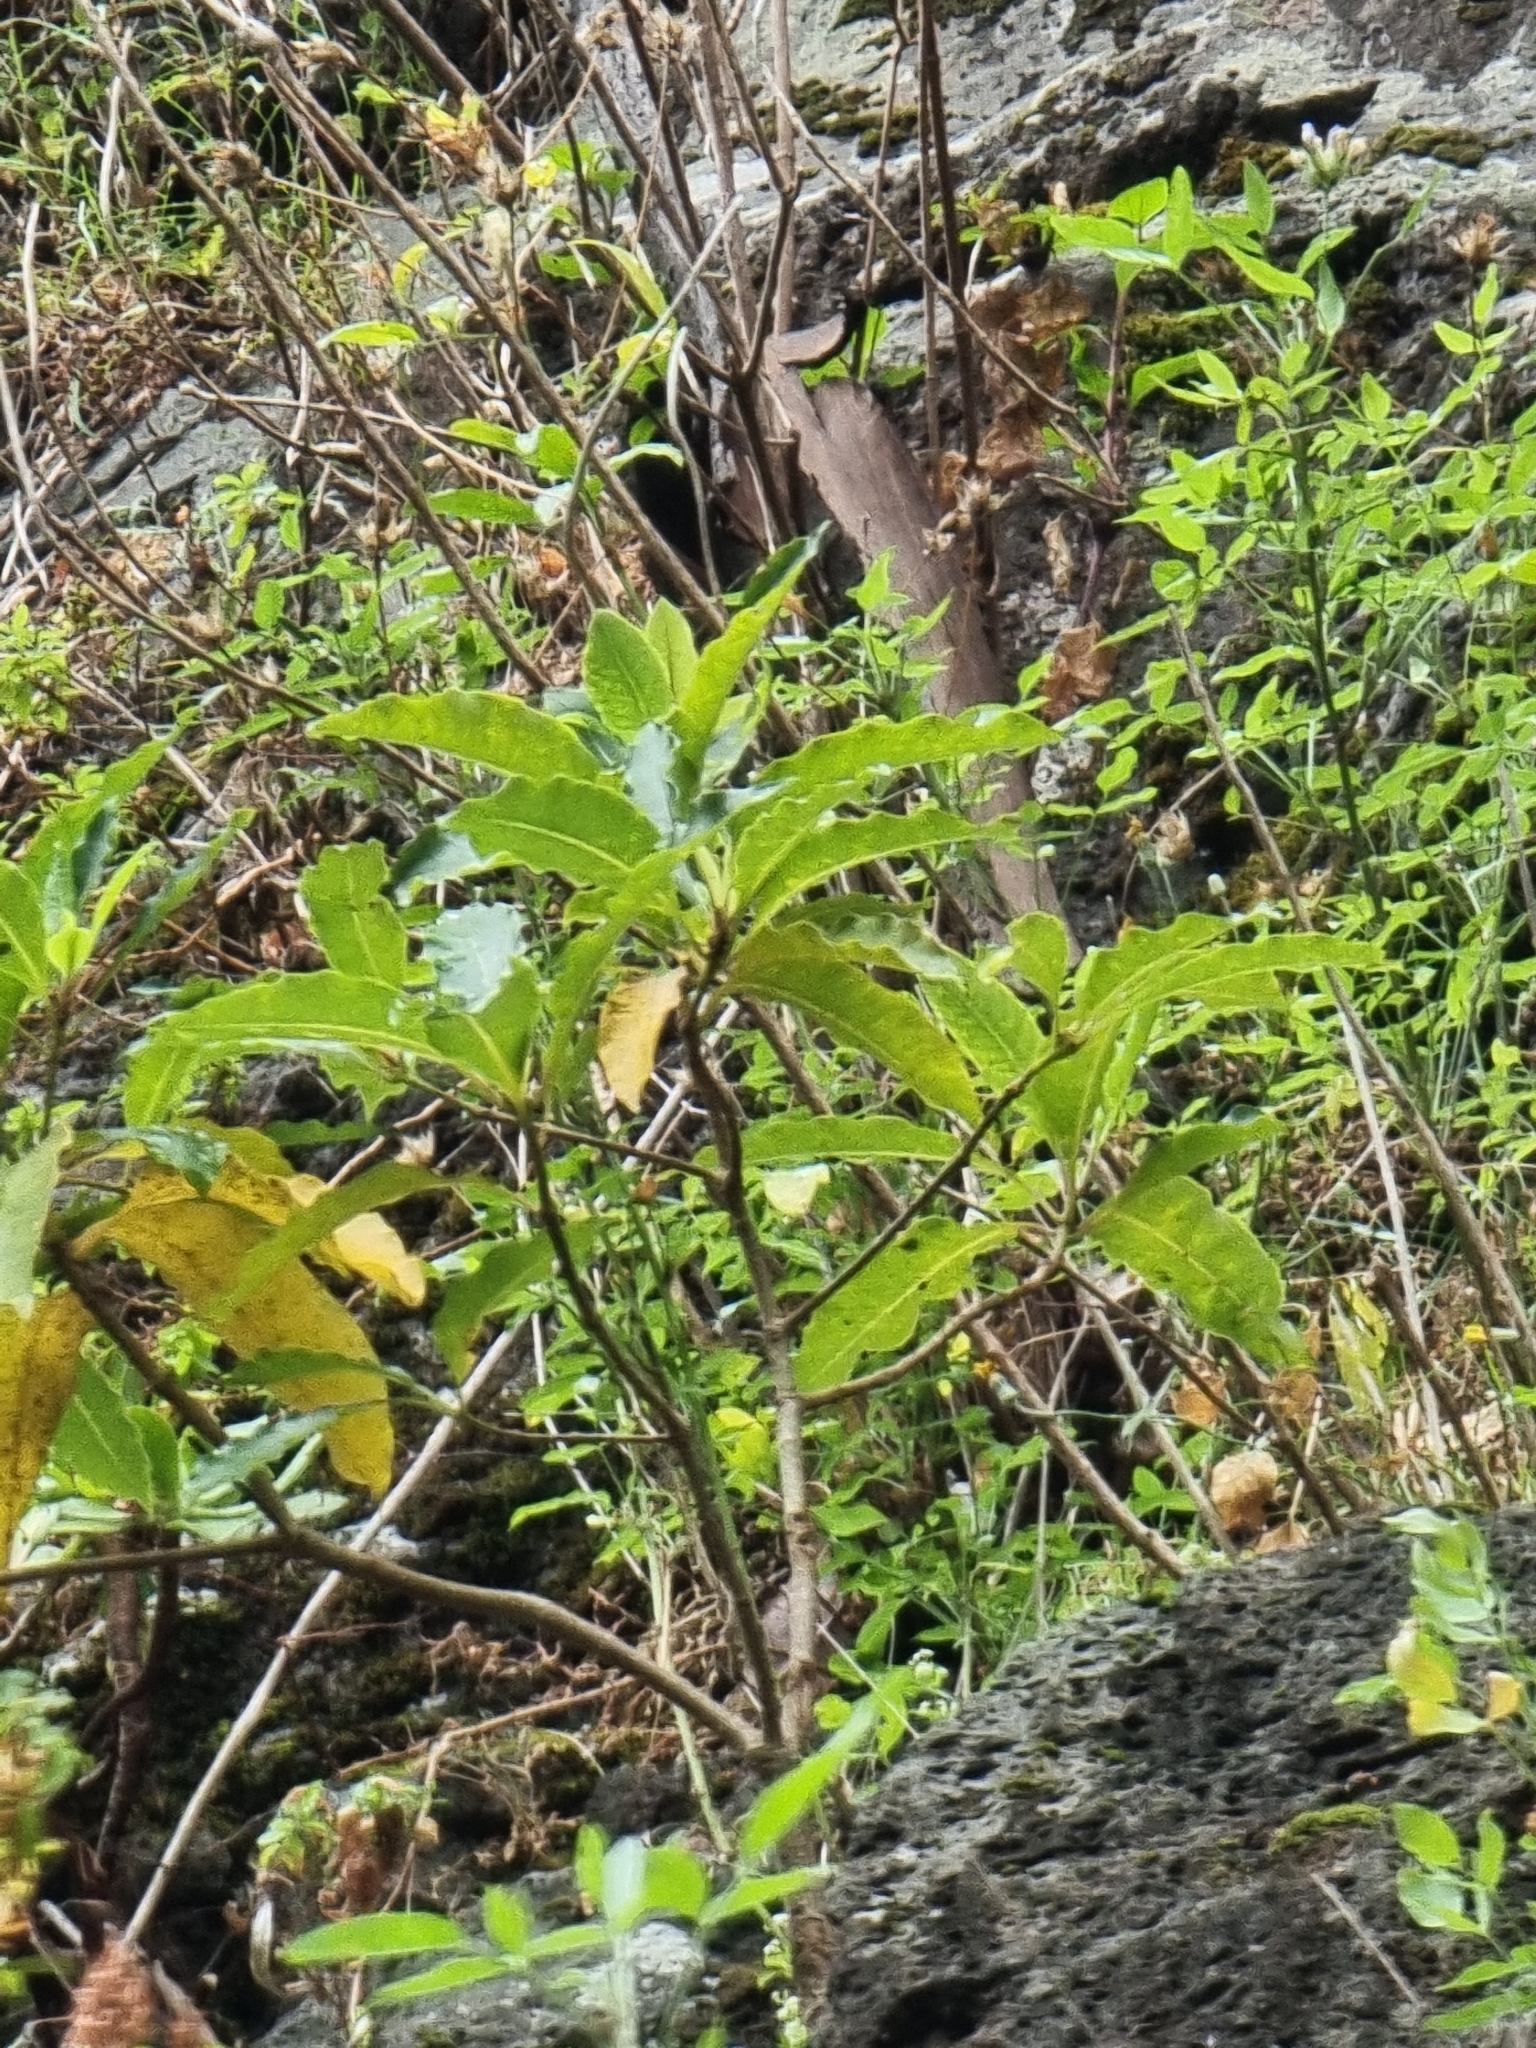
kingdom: Plantae
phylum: Tracheophyta
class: Magnoliopsida
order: Apiales
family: Pittosporaceae
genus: Pittosporum
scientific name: Pittosporum undulatum
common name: Australian cheesewood
